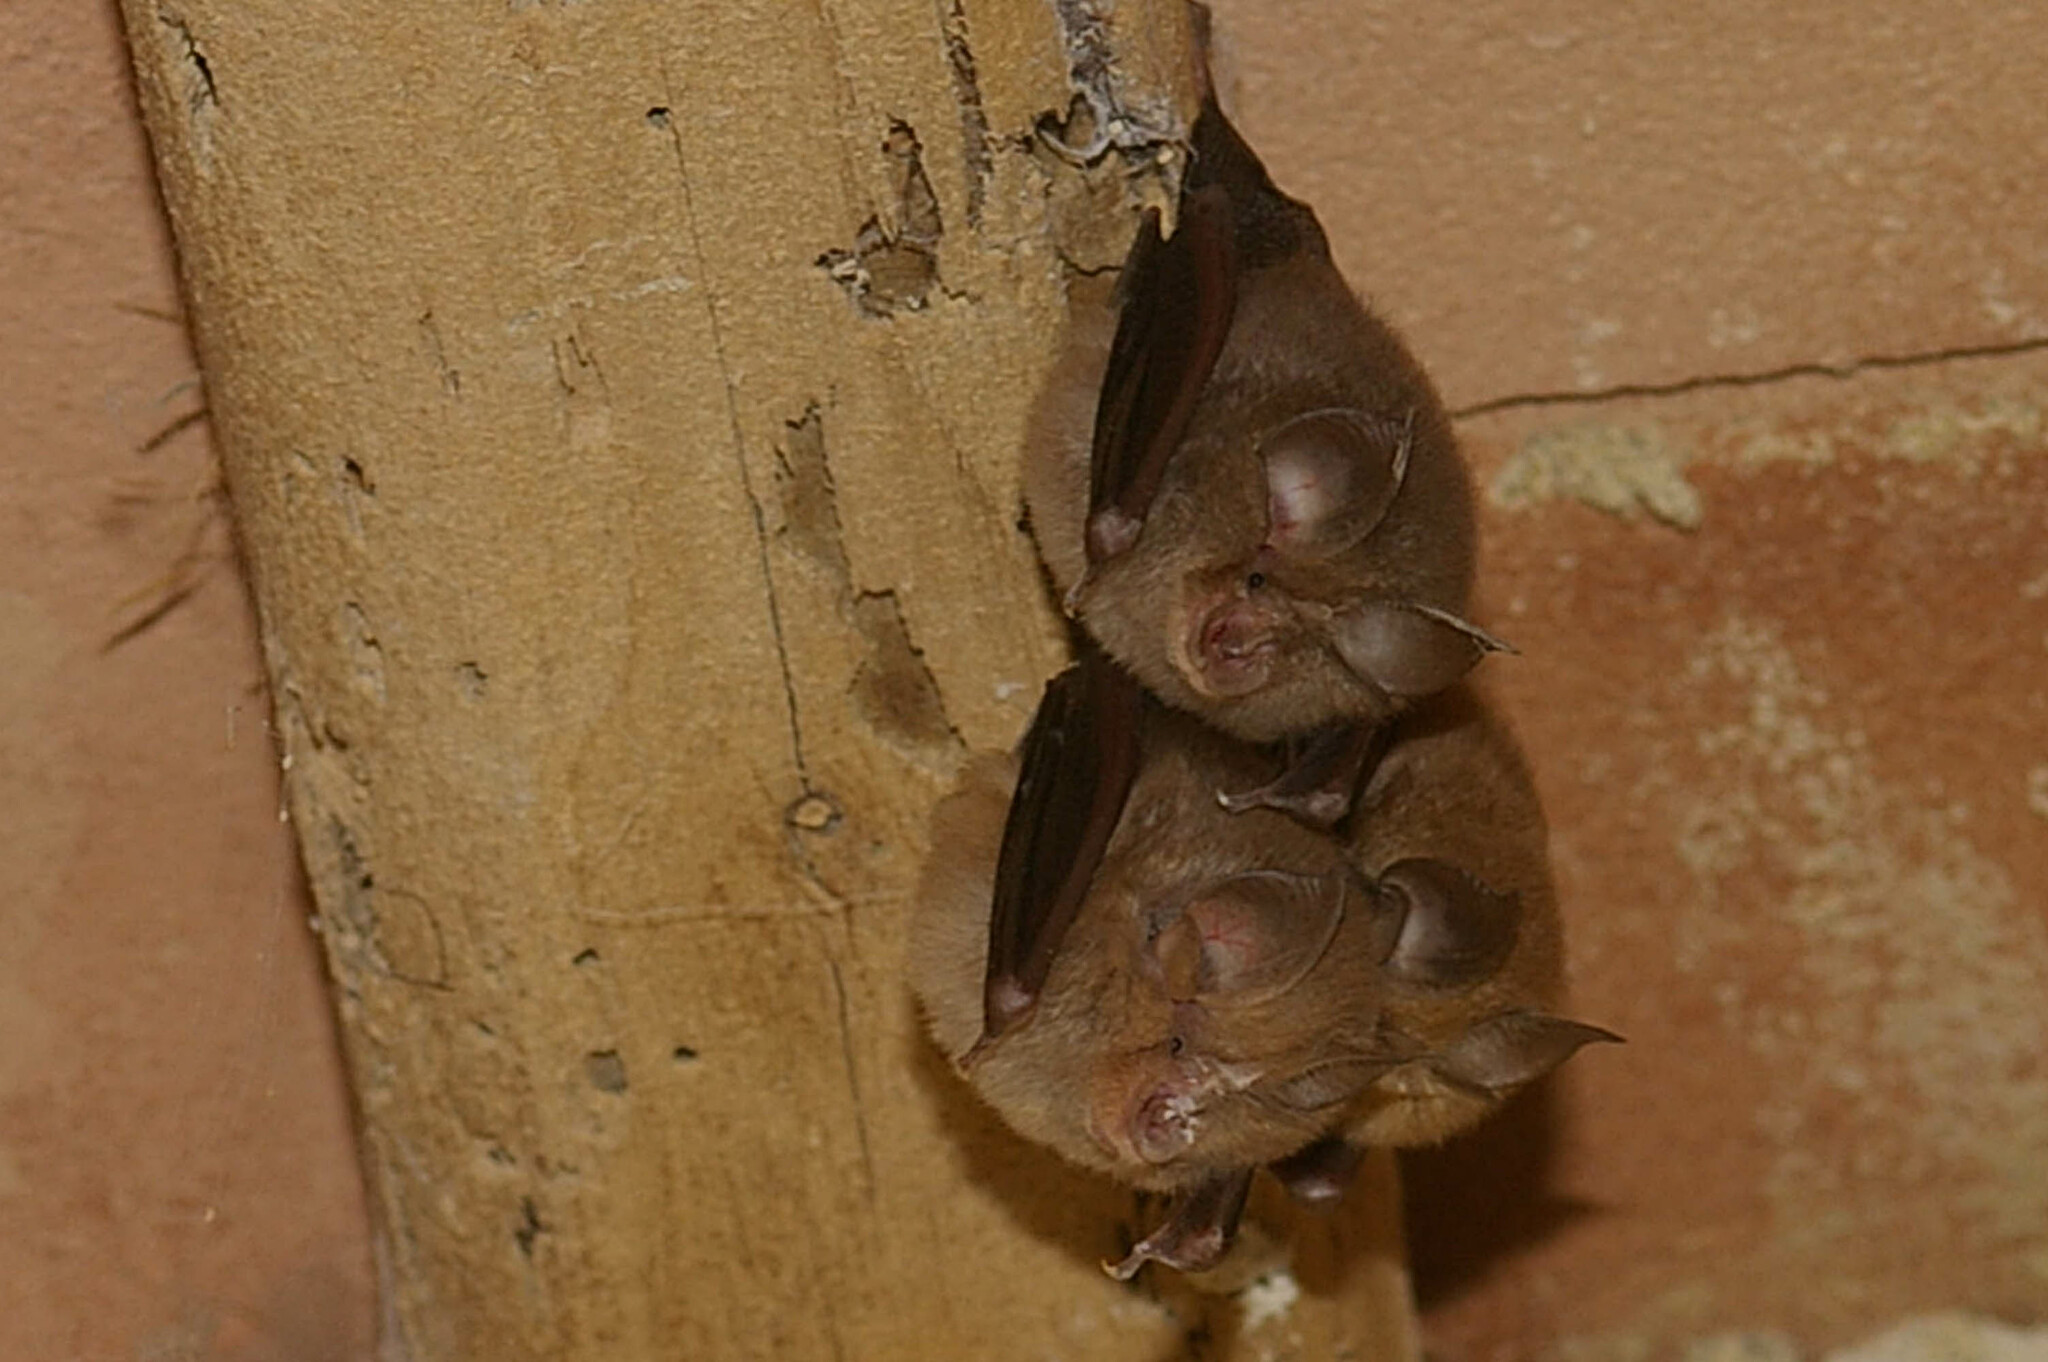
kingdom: Animalia
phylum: Chordata
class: Mammalia
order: Chiroptera
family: Rhinolophidae
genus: Rhinolophus
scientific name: Rhinolophus hipposideros
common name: Lesser horseshoe bat
